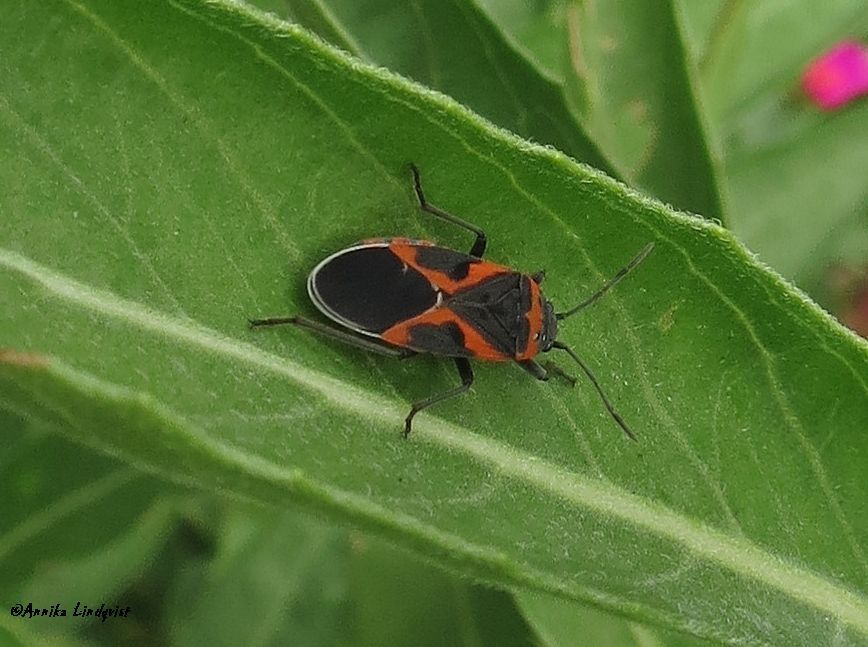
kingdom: Animalia
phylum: Arthropoda
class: Insecta
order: Hemiptera
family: Lygaeidae
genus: Lygaeus
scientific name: Lygaeus kalmii
